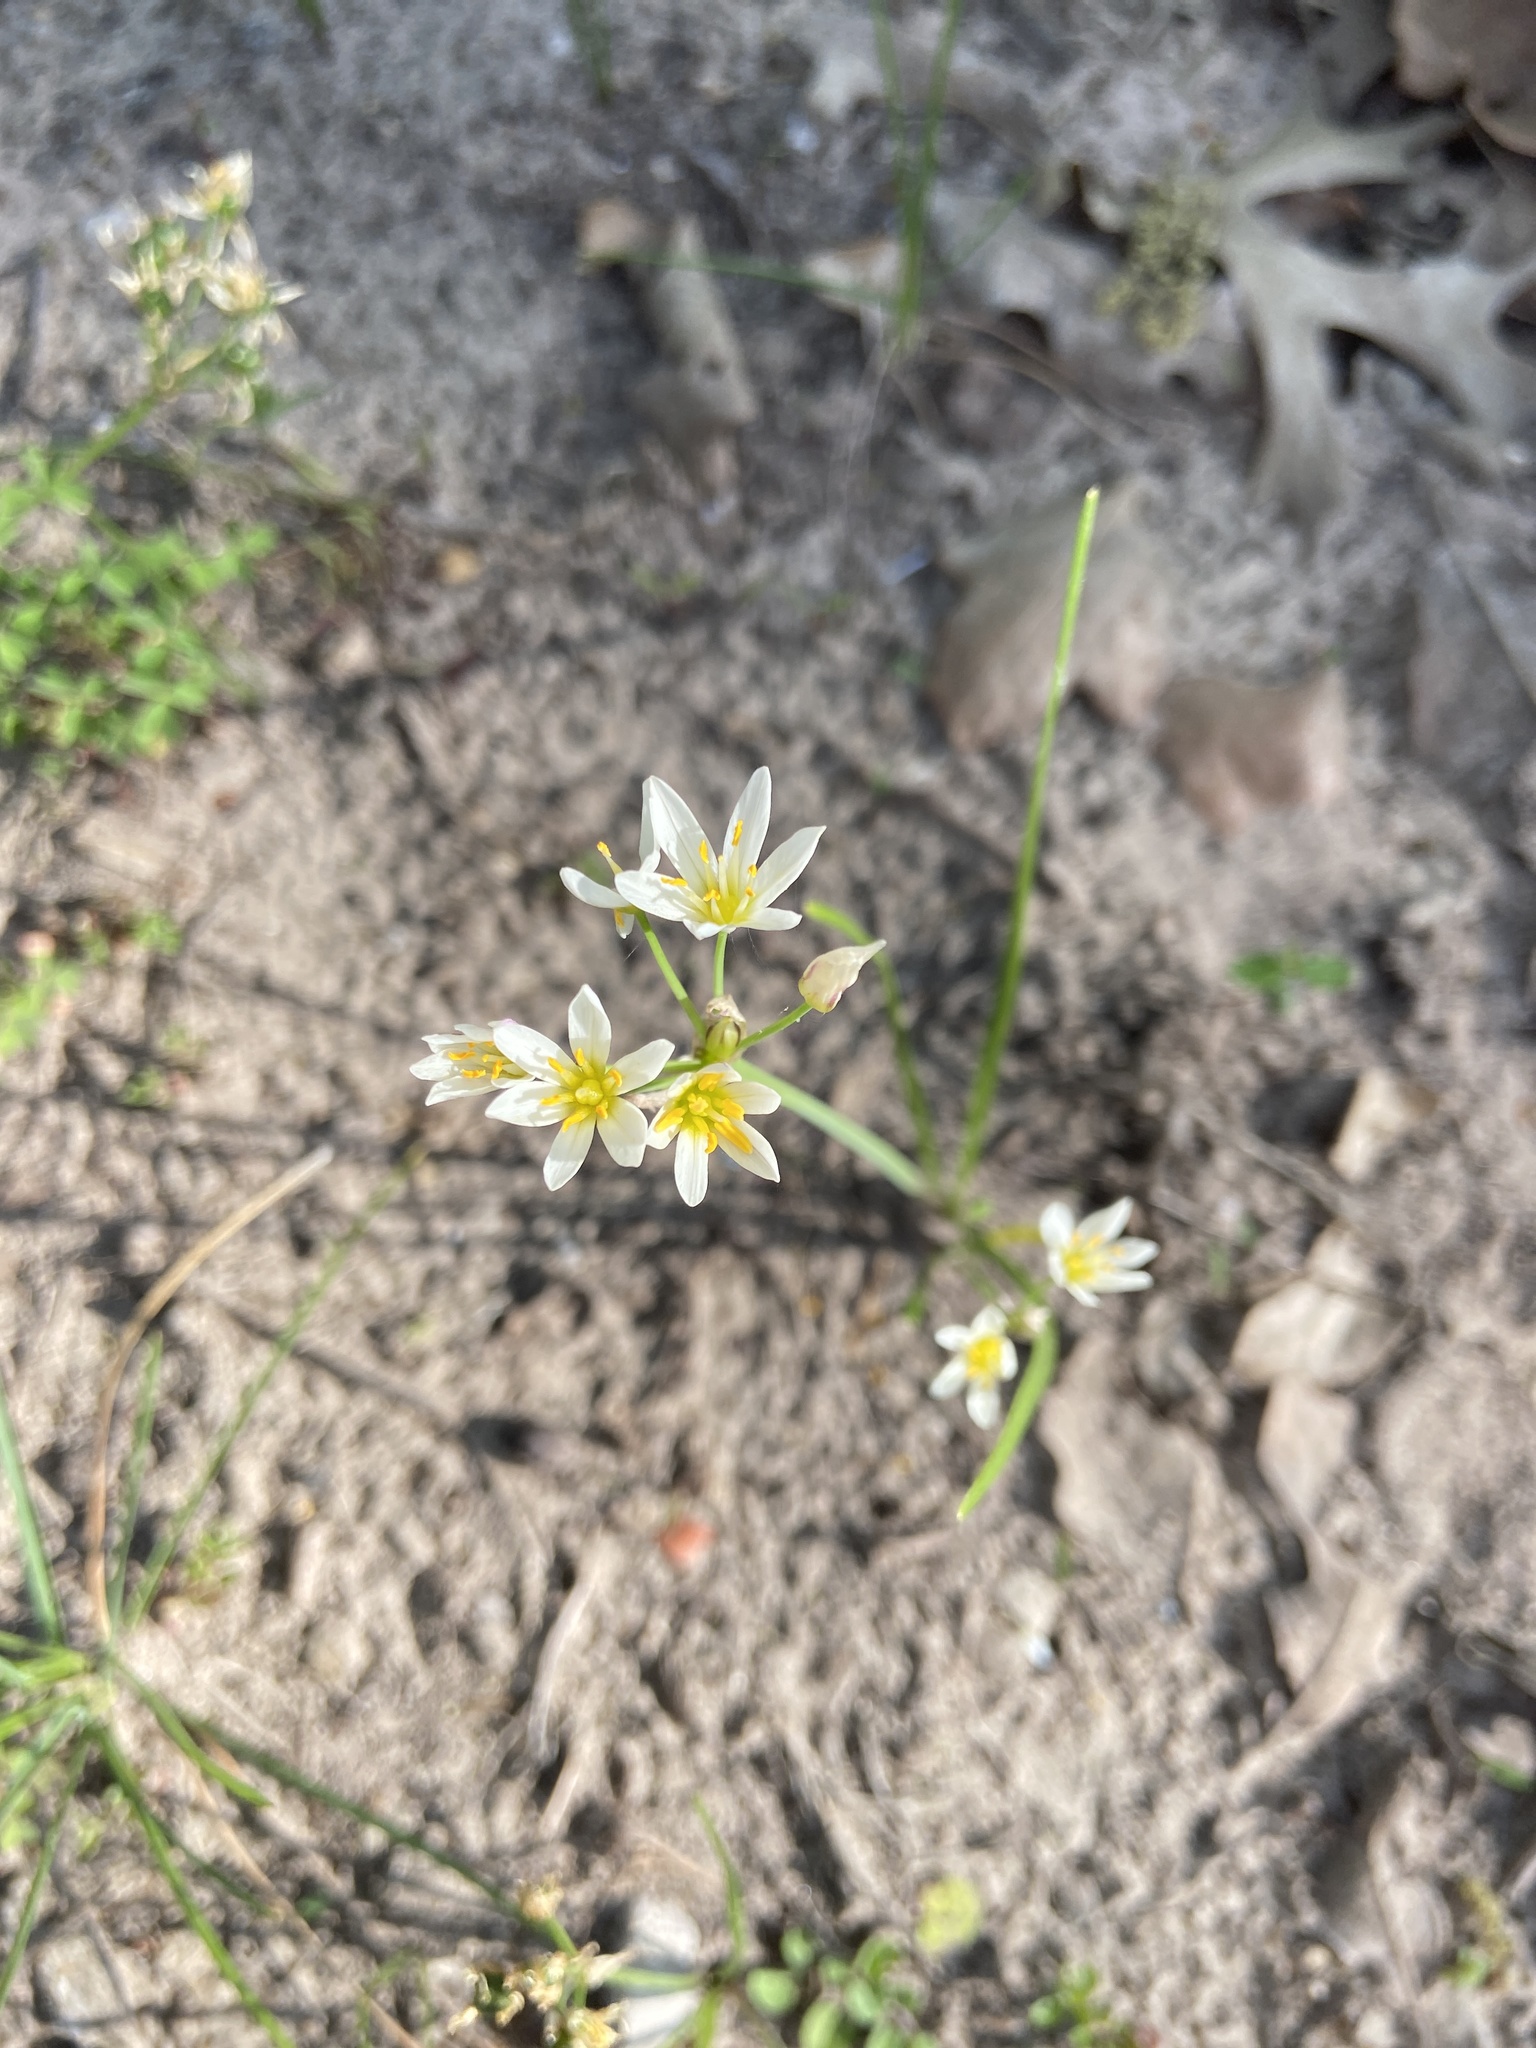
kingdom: Plantae
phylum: Tracheophyta
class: Liliopsida
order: Asparagales
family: Amaryllidaceae
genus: Nothoscordum
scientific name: Nothoscordum bivalve
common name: Crow-poison
